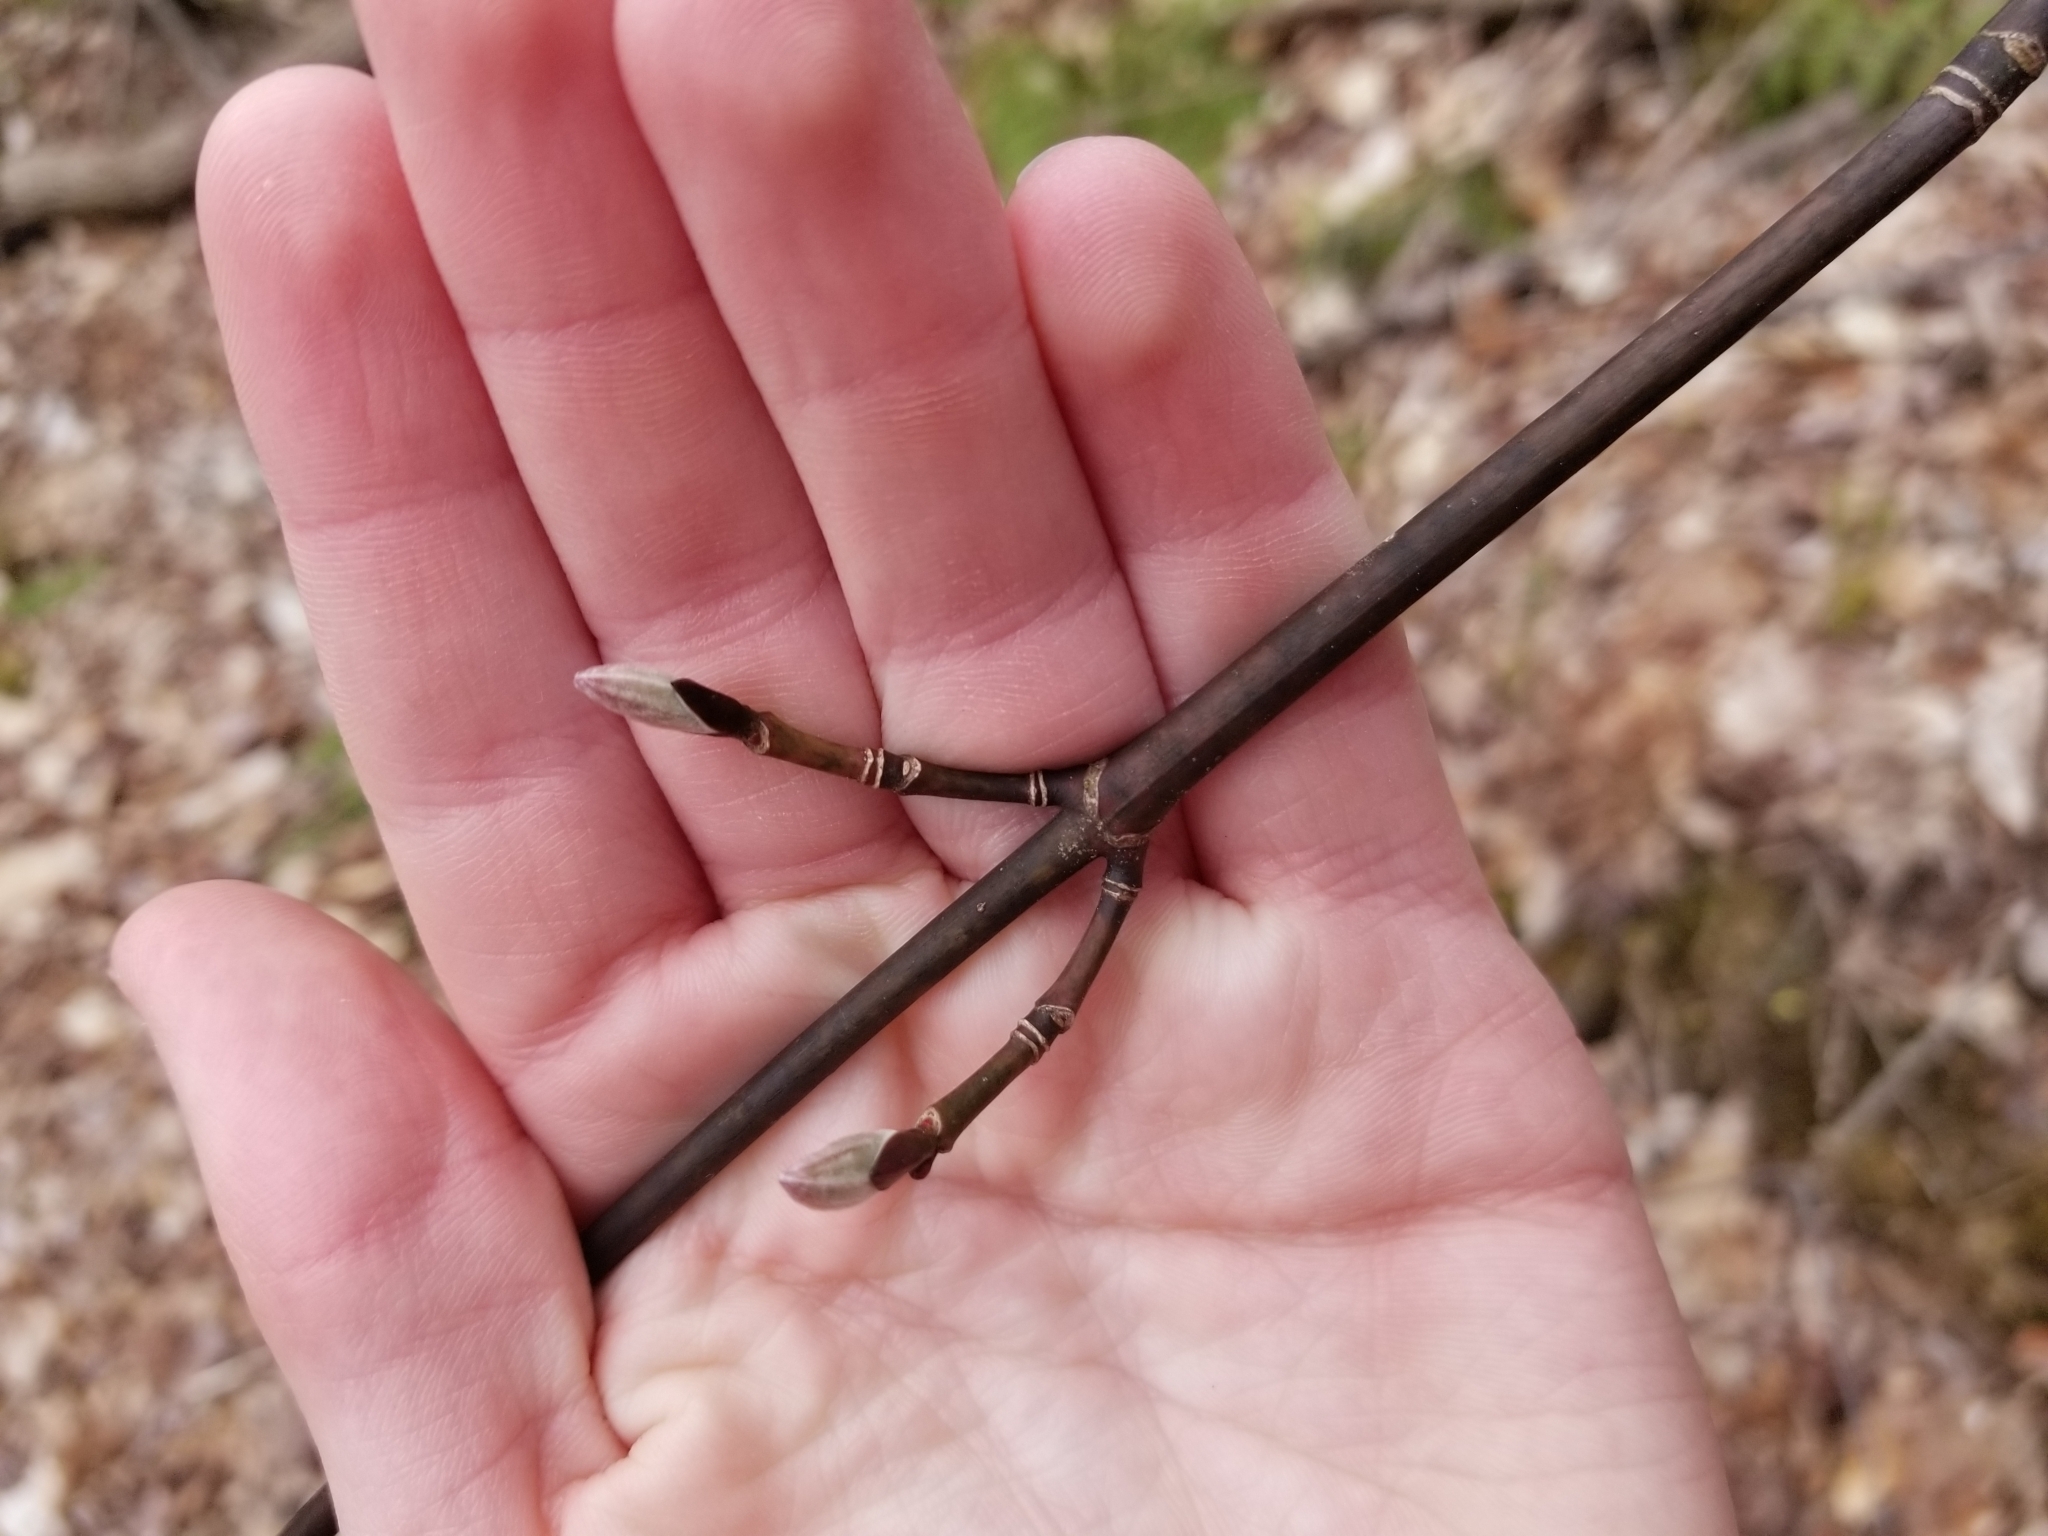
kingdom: Plantae
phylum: Tracheophyta
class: Magnoliopsida
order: Sapindales
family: Sapindaceae
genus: Acer
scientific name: Acer pensylvanicum
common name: Moosewood
